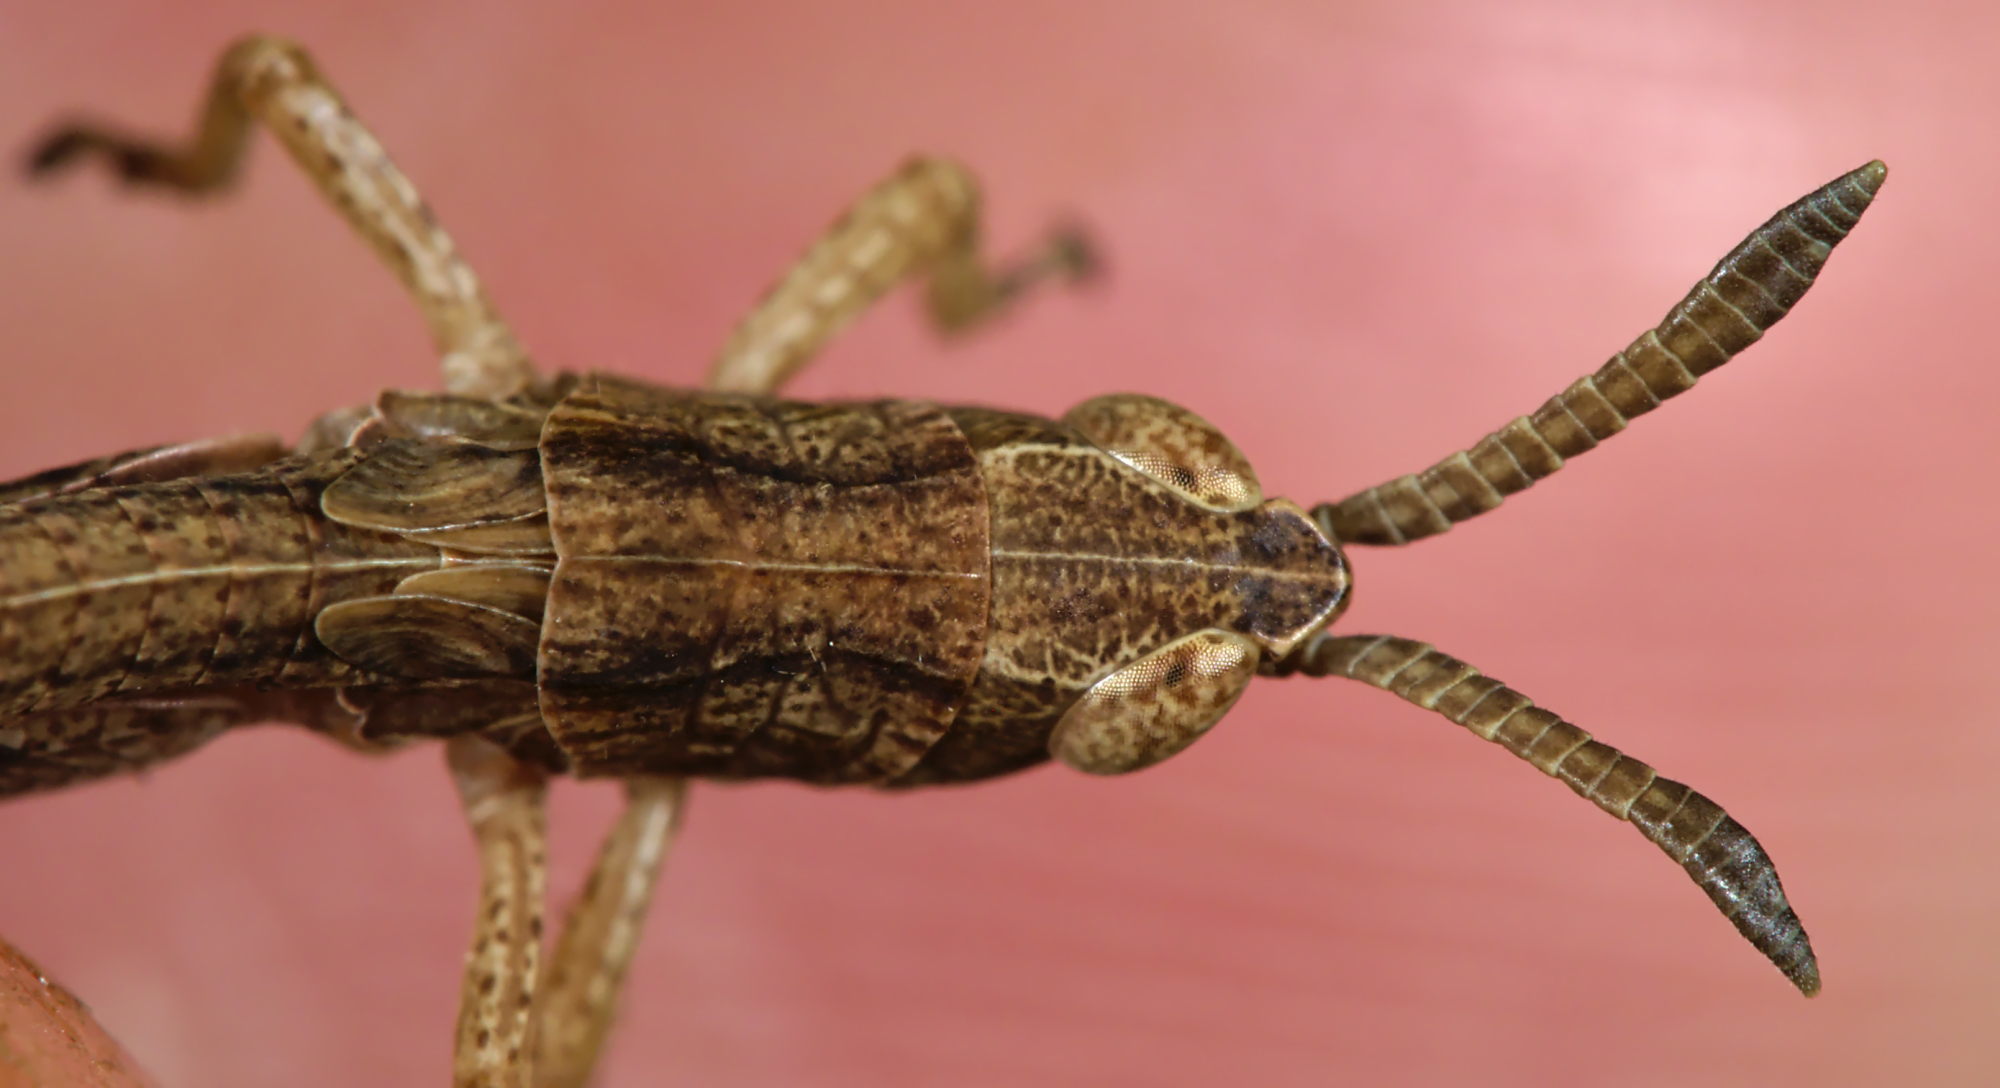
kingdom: Animalia
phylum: Arthropoda
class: Insecta
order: Orthoptera
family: Acrididae
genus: Gomphocerippus
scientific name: Gomphocerippus rufus
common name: Rufous grasshopper
